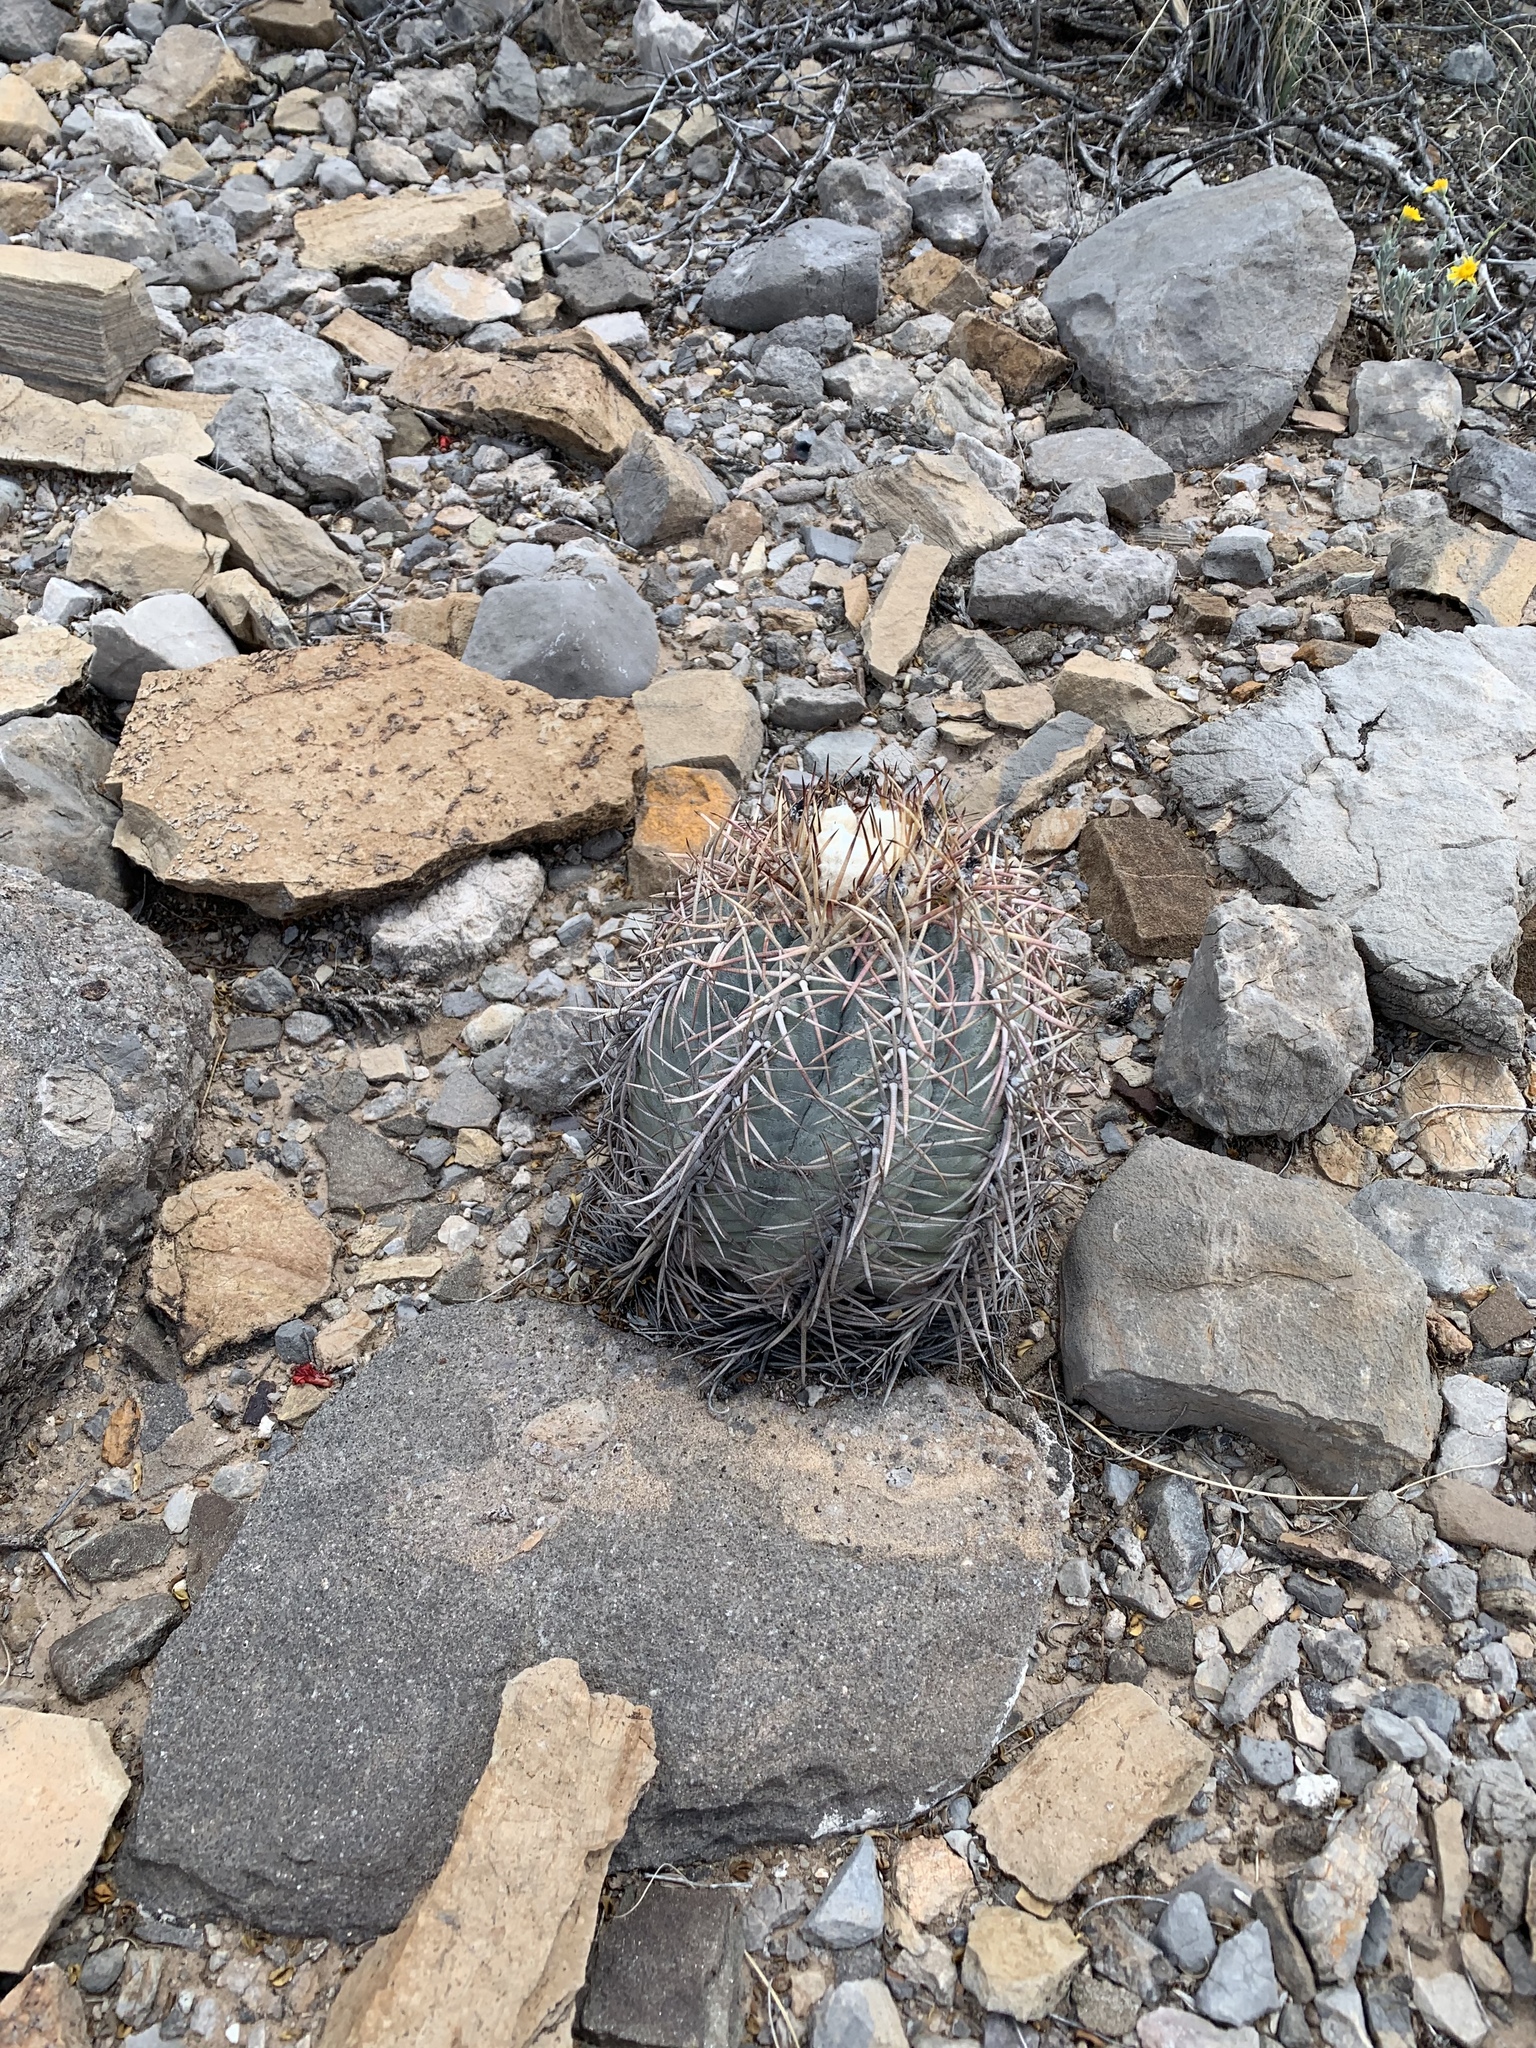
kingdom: Plantae
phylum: Tracheophyta
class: Magnoliopsida
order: Caryophyllales
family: Cactaceae
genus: Echinocactus
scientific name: Echinocactus horizonthalonius
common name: Devilshead
